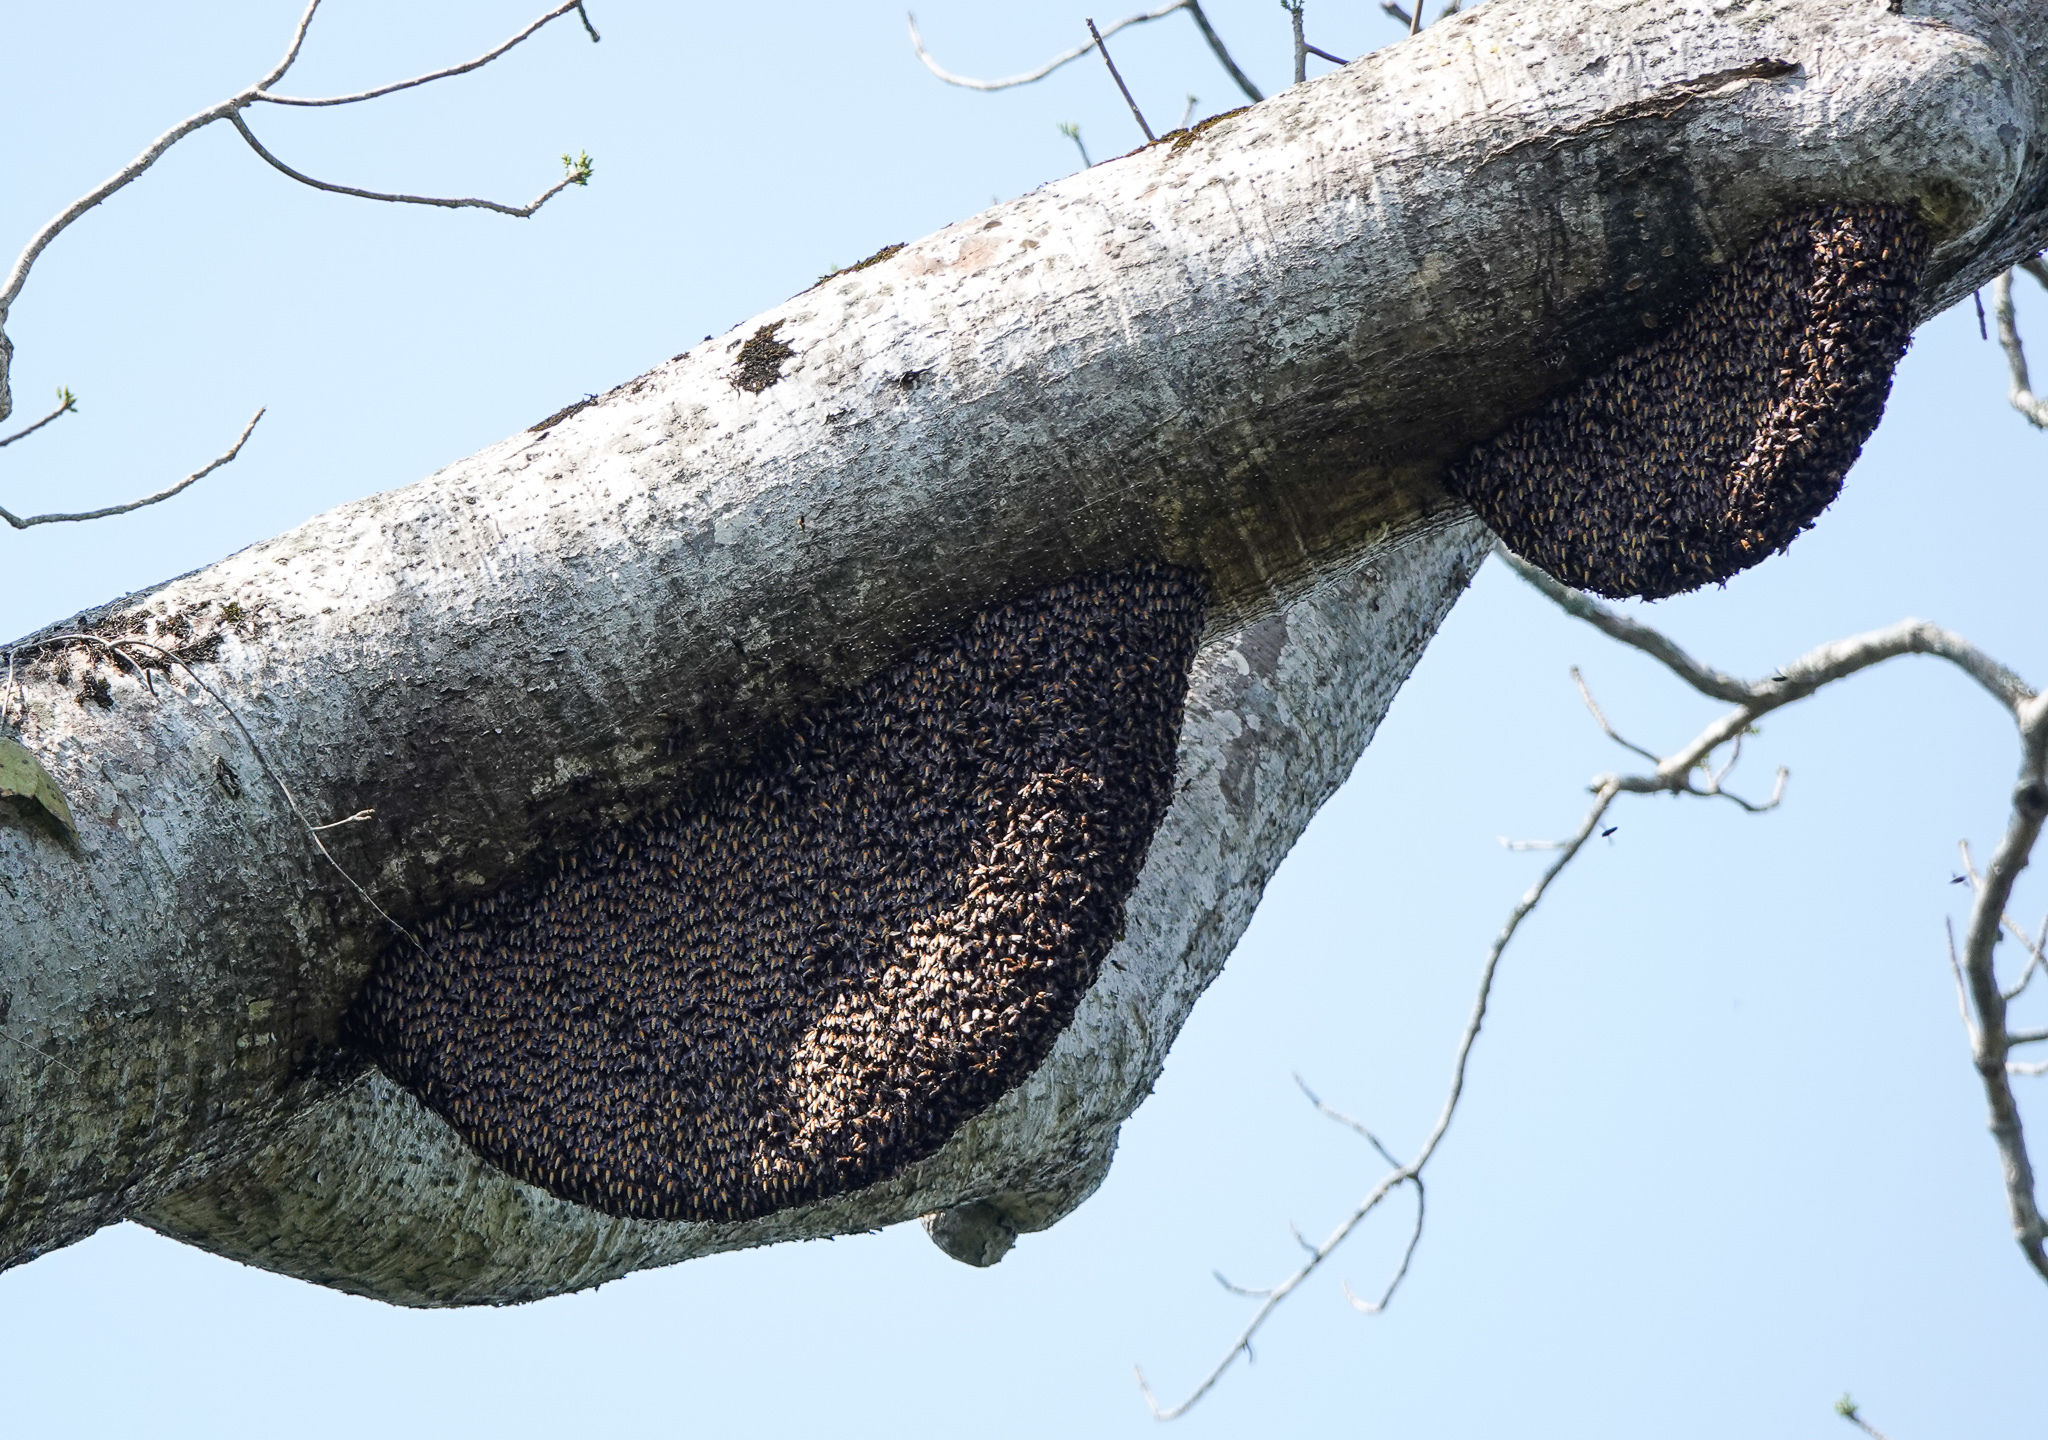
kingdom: Animalia
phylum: Arthropoda
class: Insecta
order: Hymenoptera
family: Apidae
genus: Apis
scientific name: Apis dorsata
